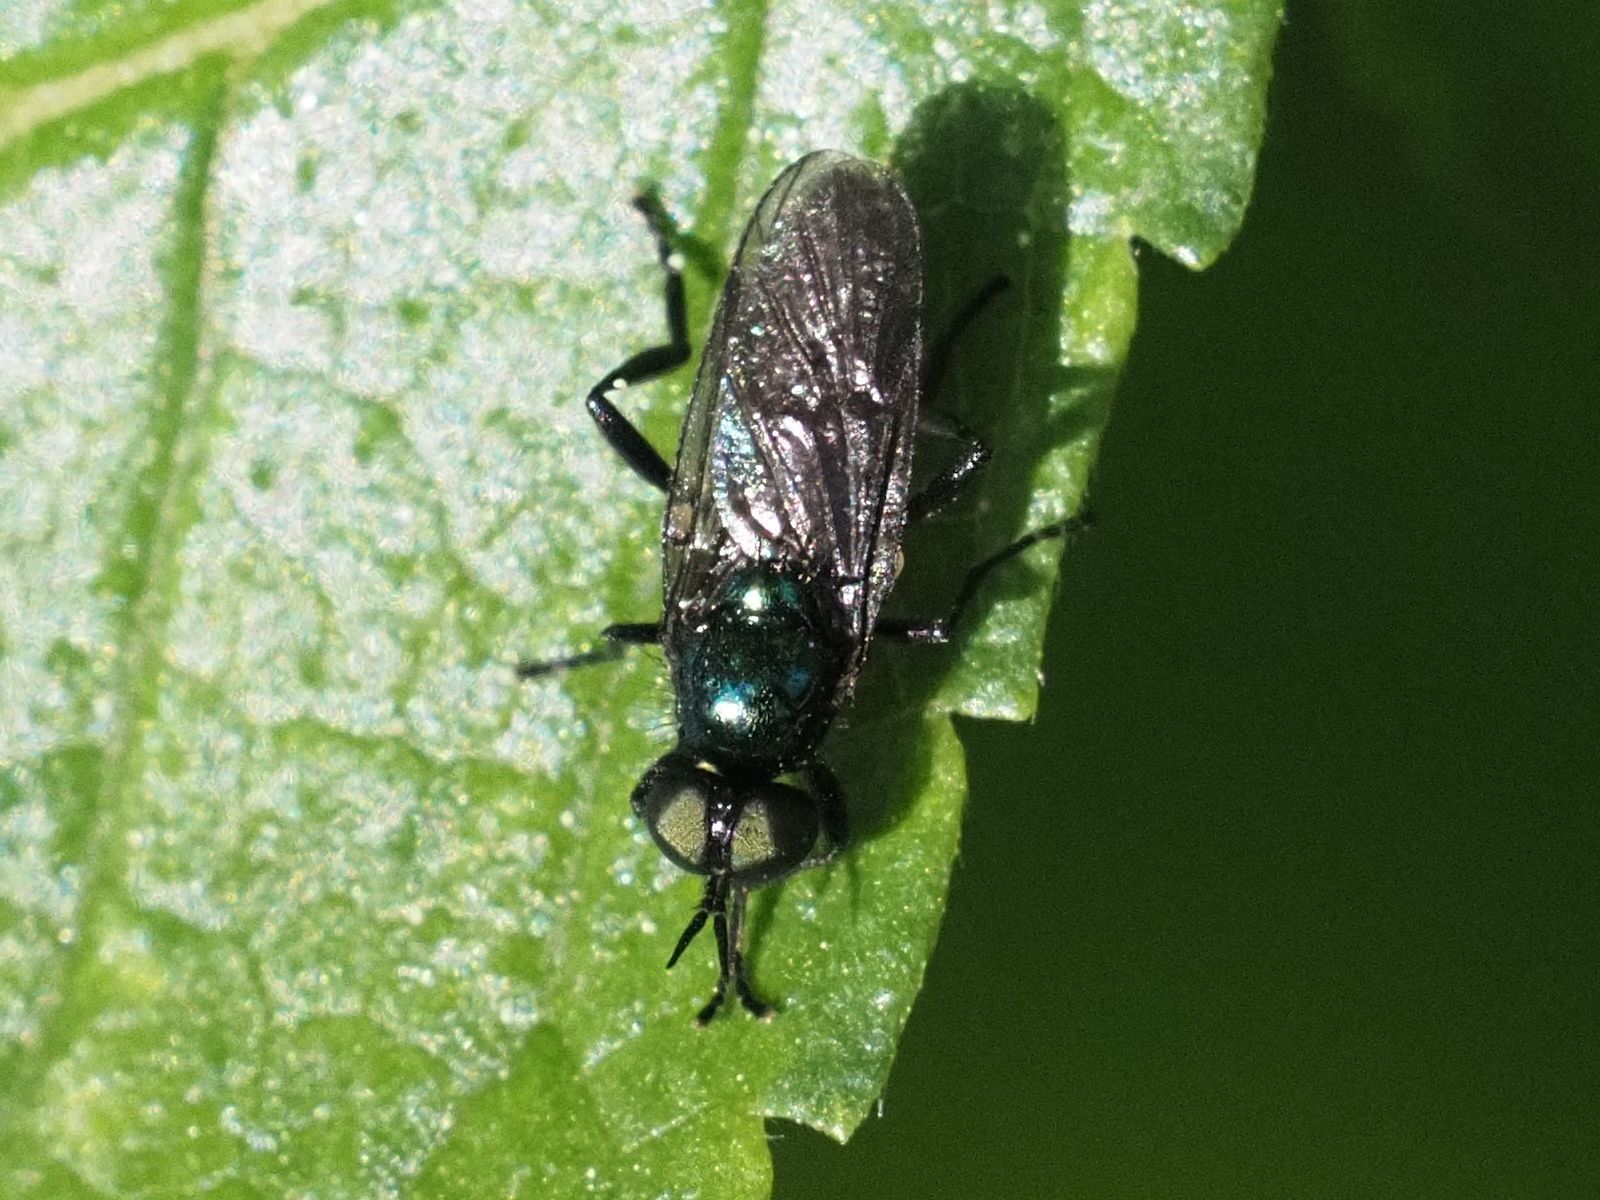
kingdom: Animalia
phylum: Arthropoda
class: Insecta
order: Diptera
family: Stratiomyidae
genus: Actina
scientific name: Actina chalybea
